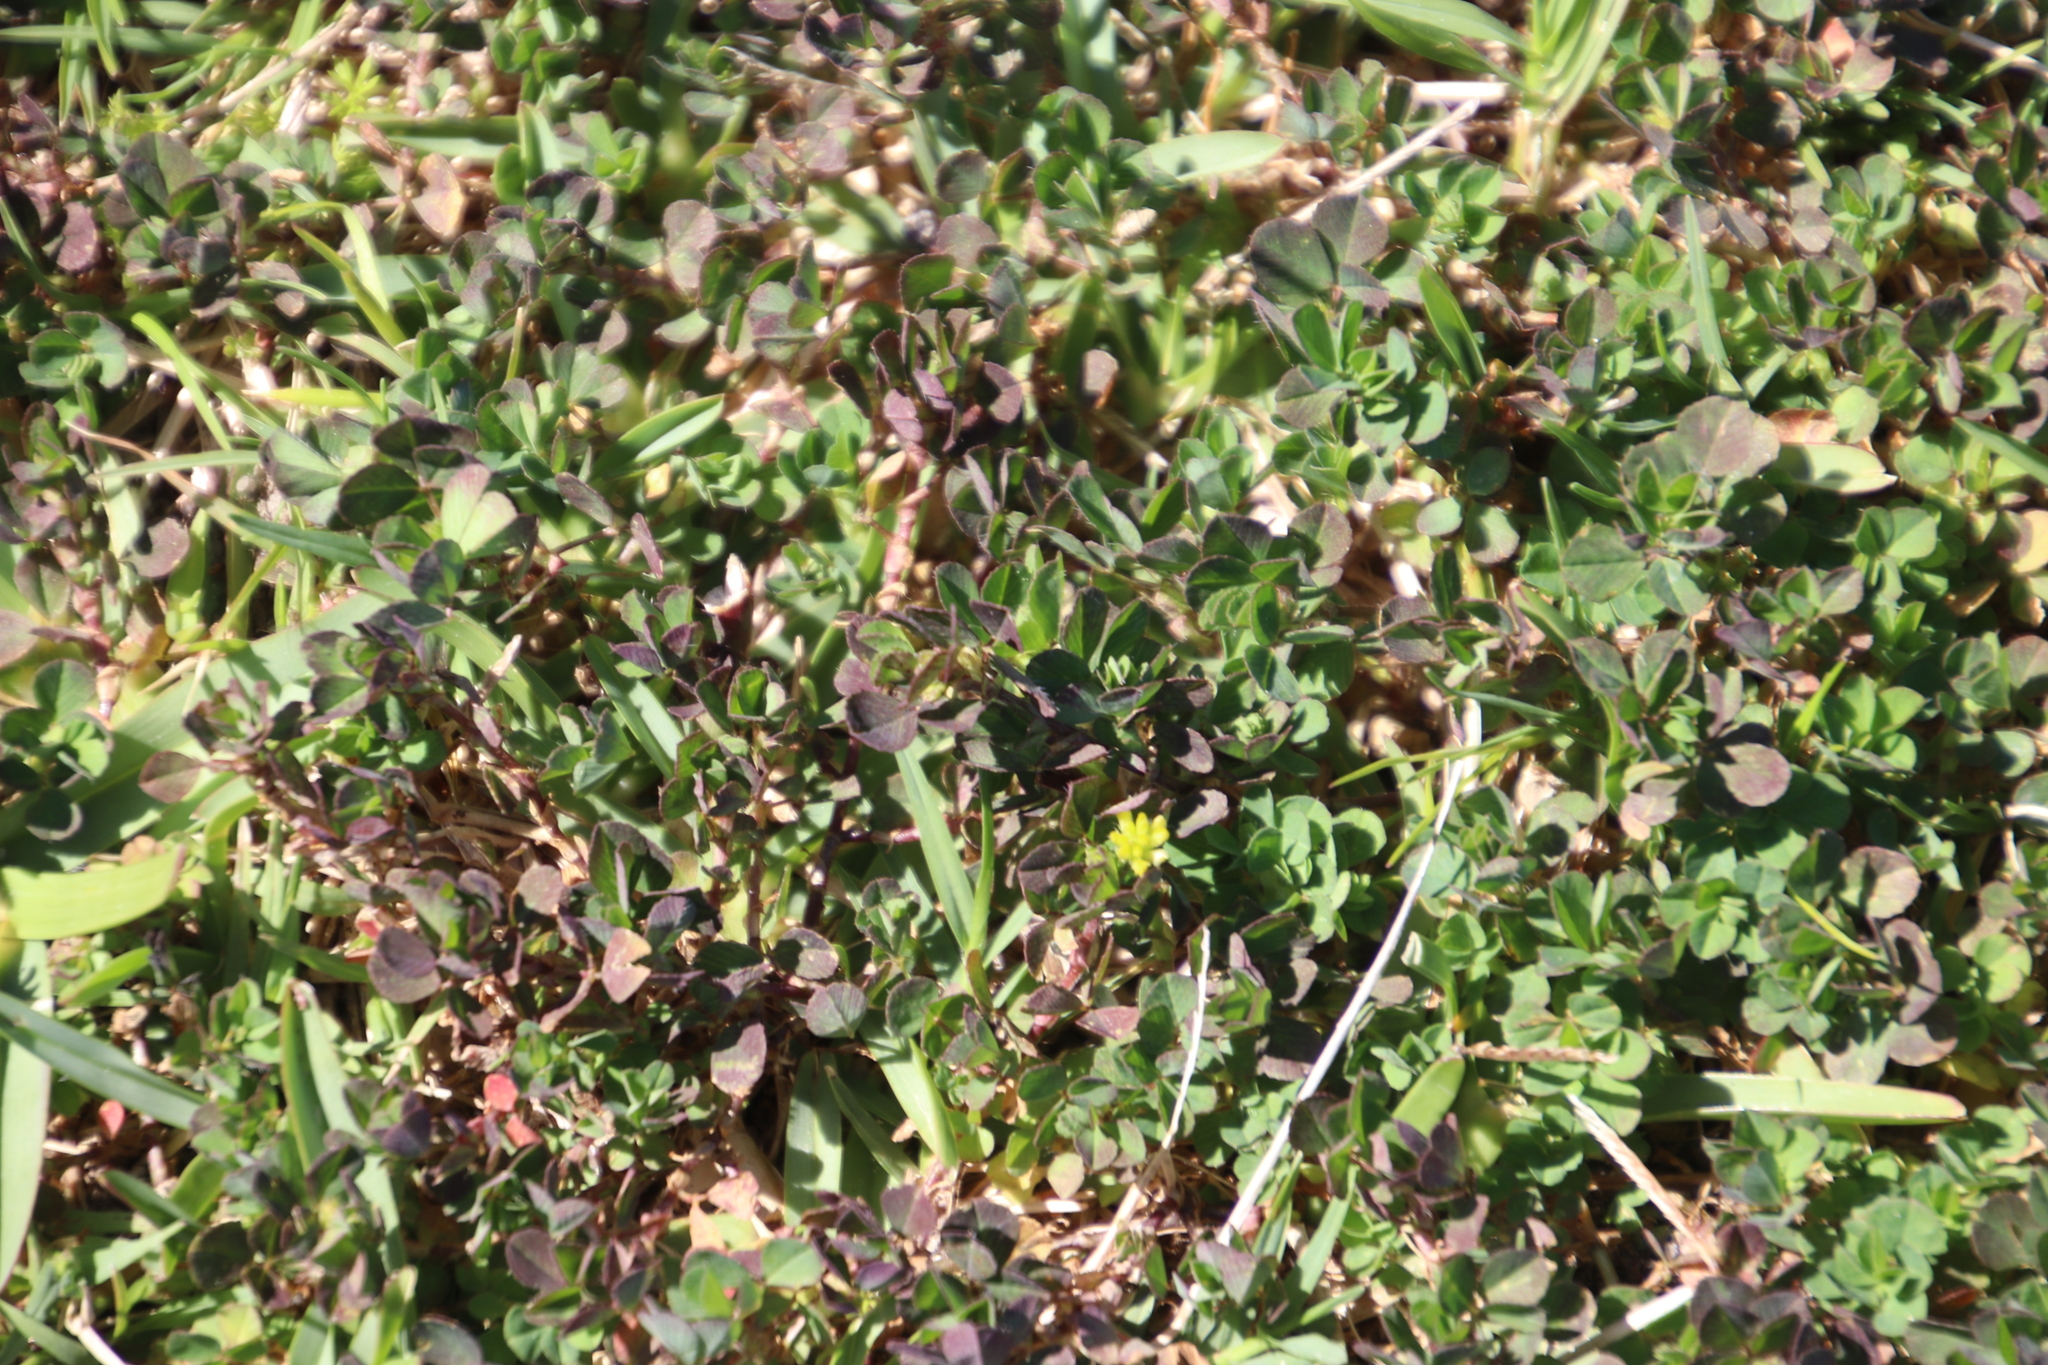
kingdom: Plantae
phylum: Tracheophyta
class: Magnoliopsida
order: Fabales
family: Fabaceae
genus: Trifolium
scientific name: Trifolium dubium
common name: Suckling clover
